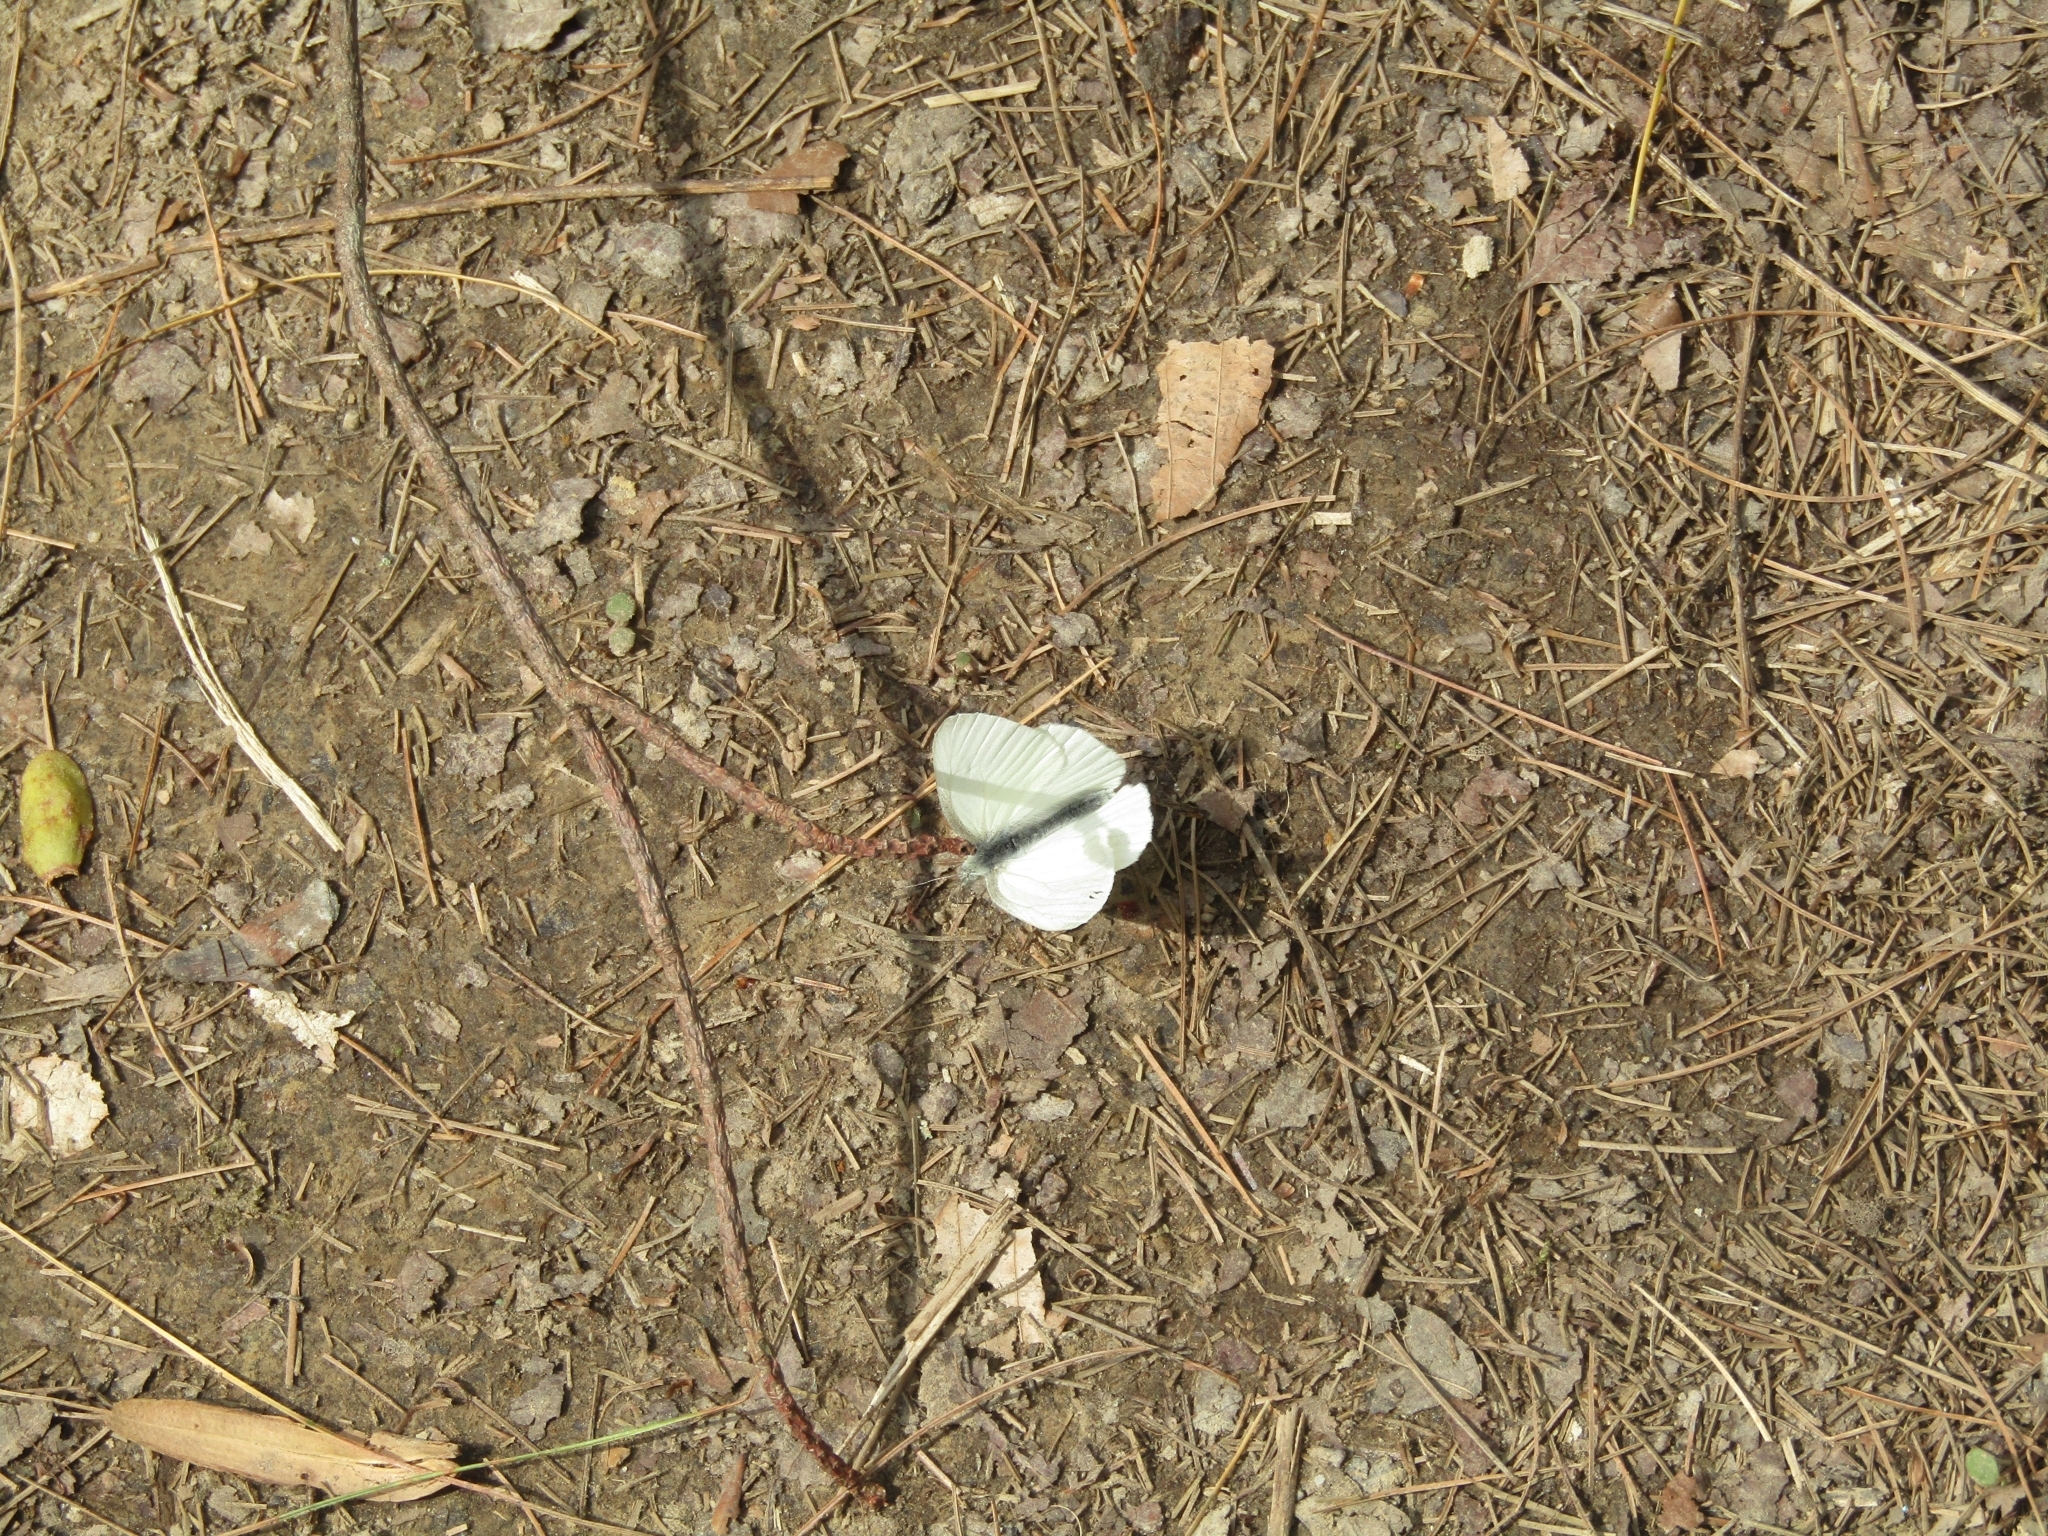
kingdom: Animalia
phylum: Arthropoda
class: Insecta
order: Lepidoptera
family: Pieridae
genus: Pieris
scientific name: Pieris virginiensis
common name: West virginia white
